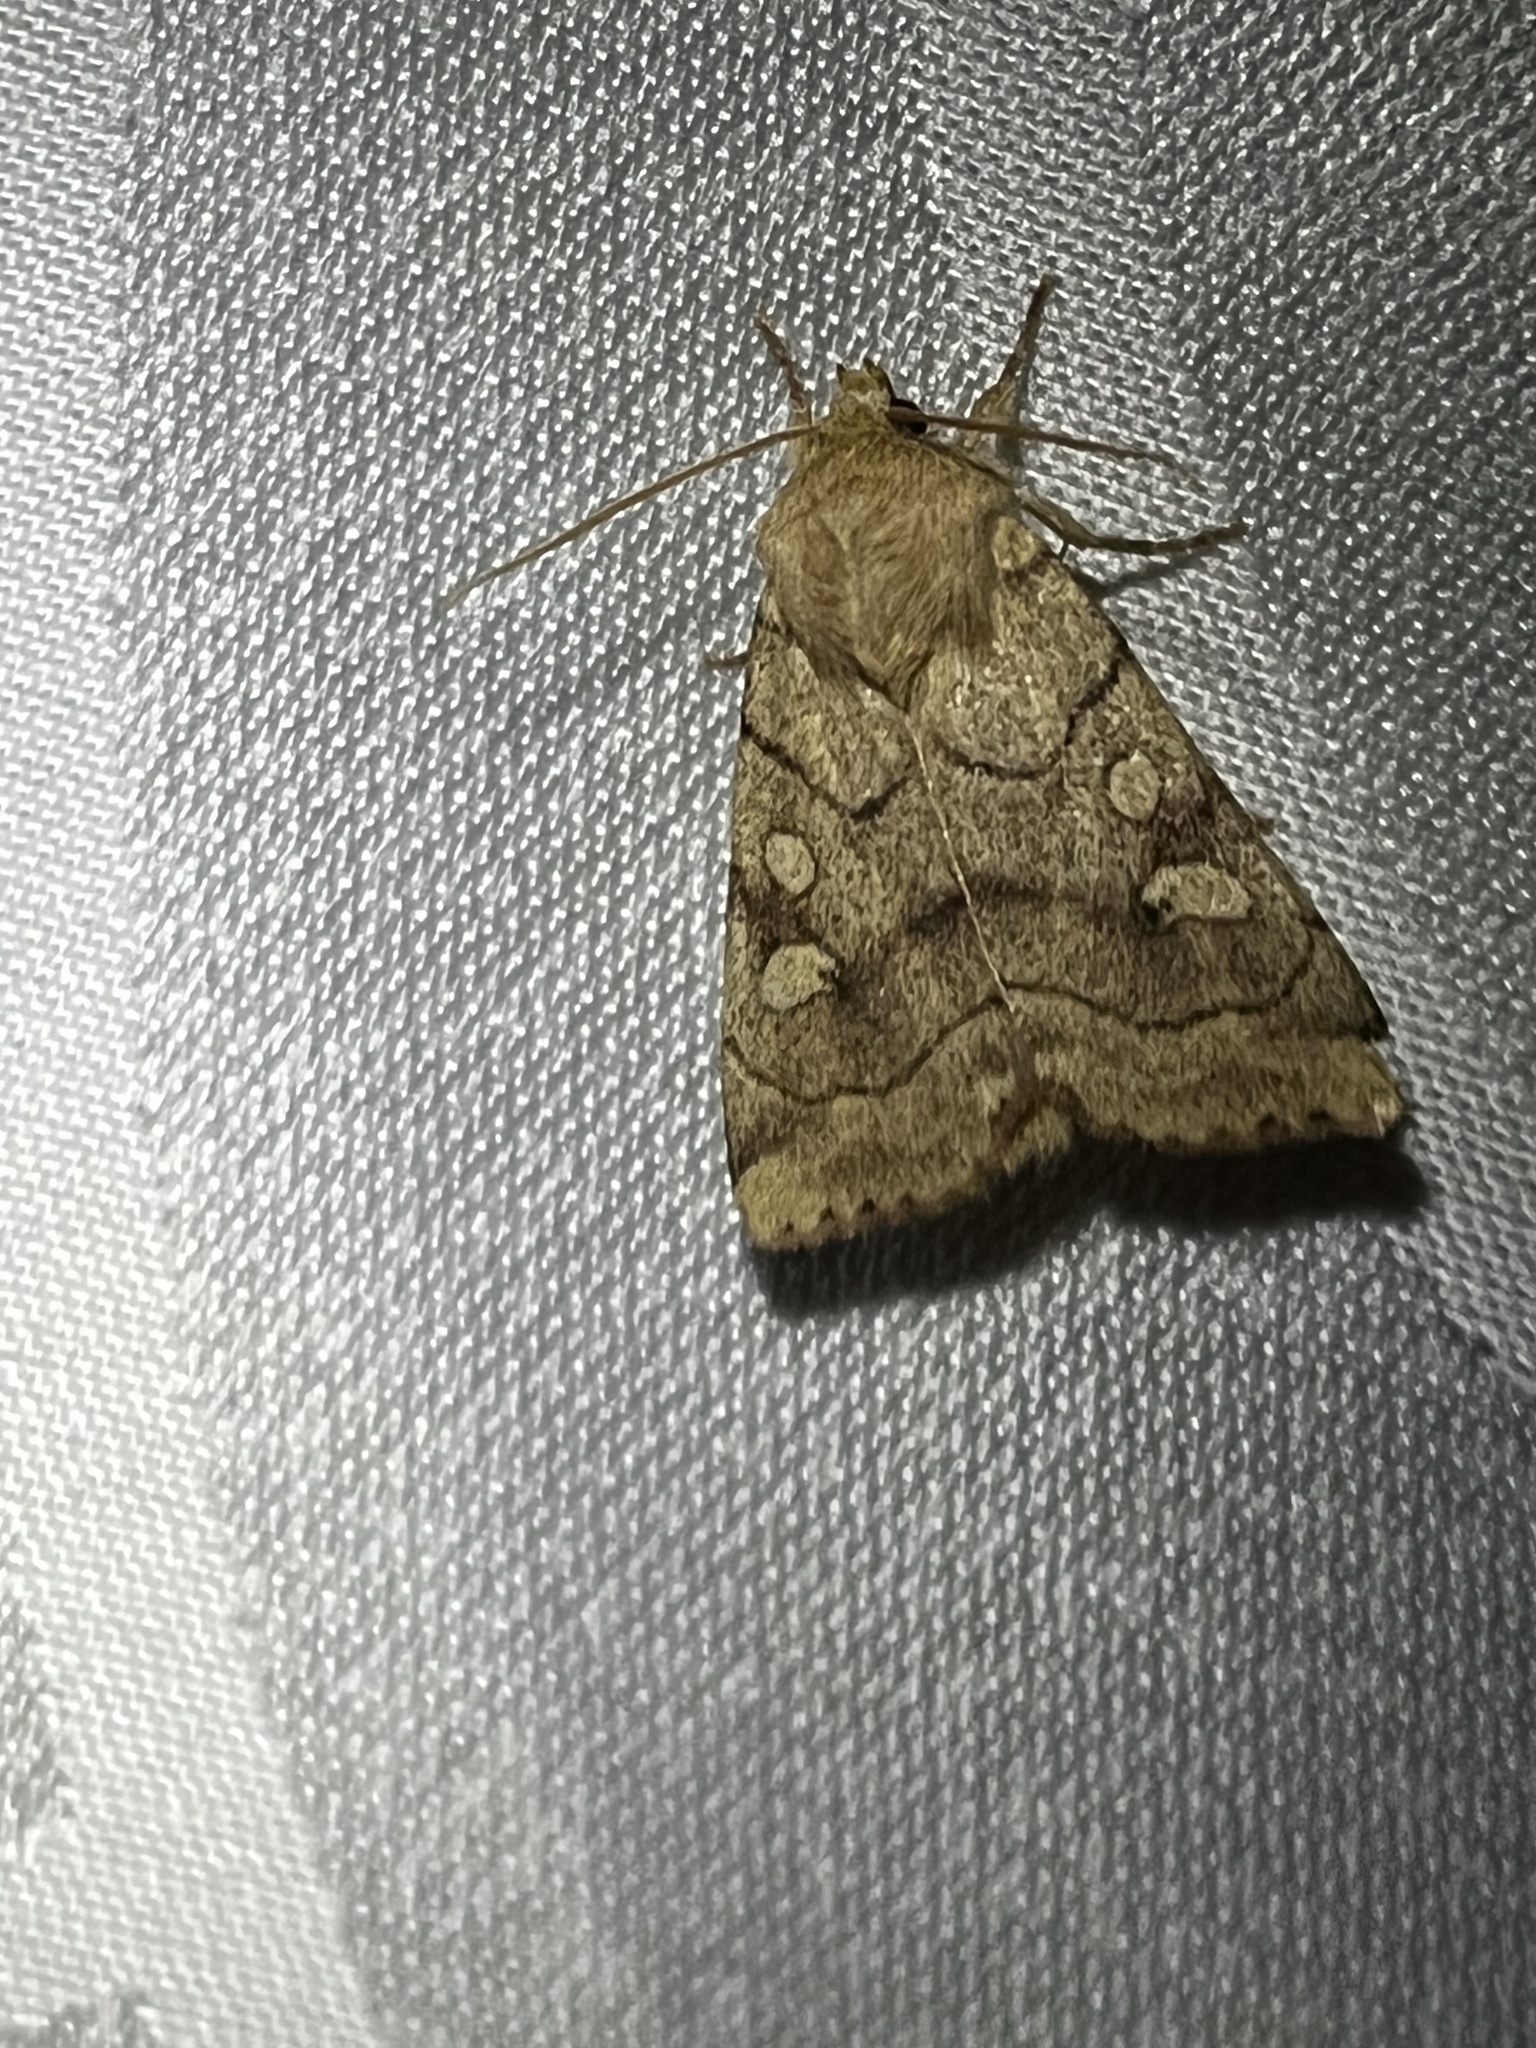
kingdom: Animalia
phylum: Arthropoda
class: Insecta
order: Lepidoptera
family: Noctuidae
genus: Enargia
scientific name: Enargia decolor
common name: Aspen twoleaf tier moth
